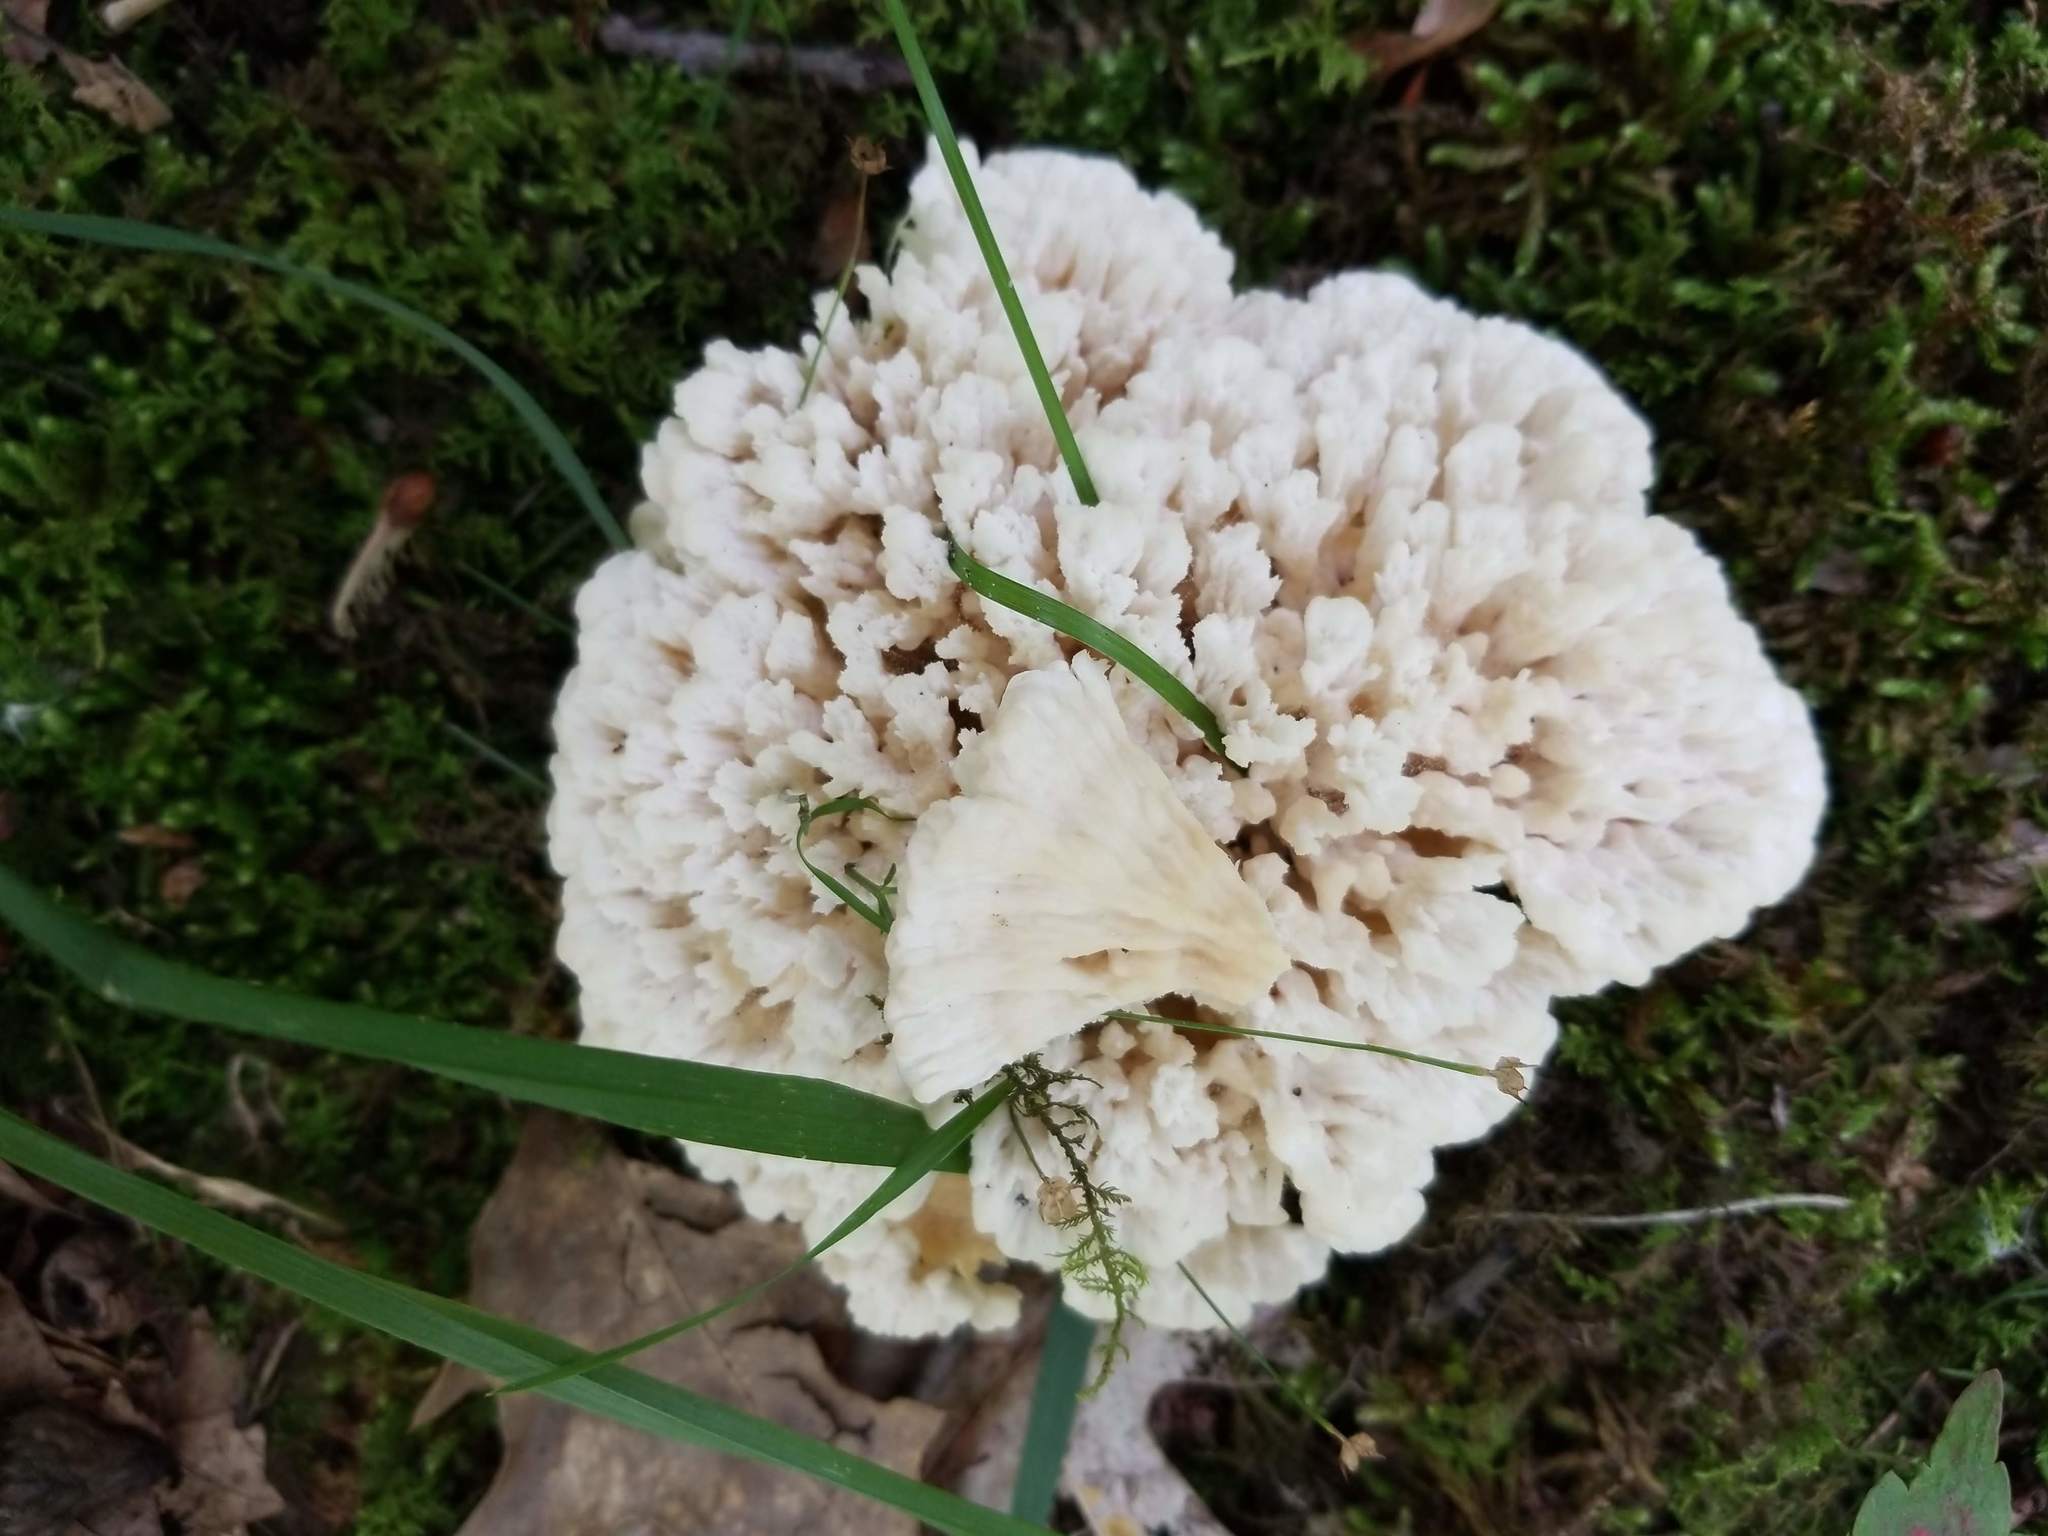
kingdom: Fungi
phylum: Basidiomycota
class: Agaricomycetes
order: Sebacinales
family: Sebacinaceae
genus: Sebacina
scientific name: Sebacina schweinitzii
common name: Jellied false coral fungus
